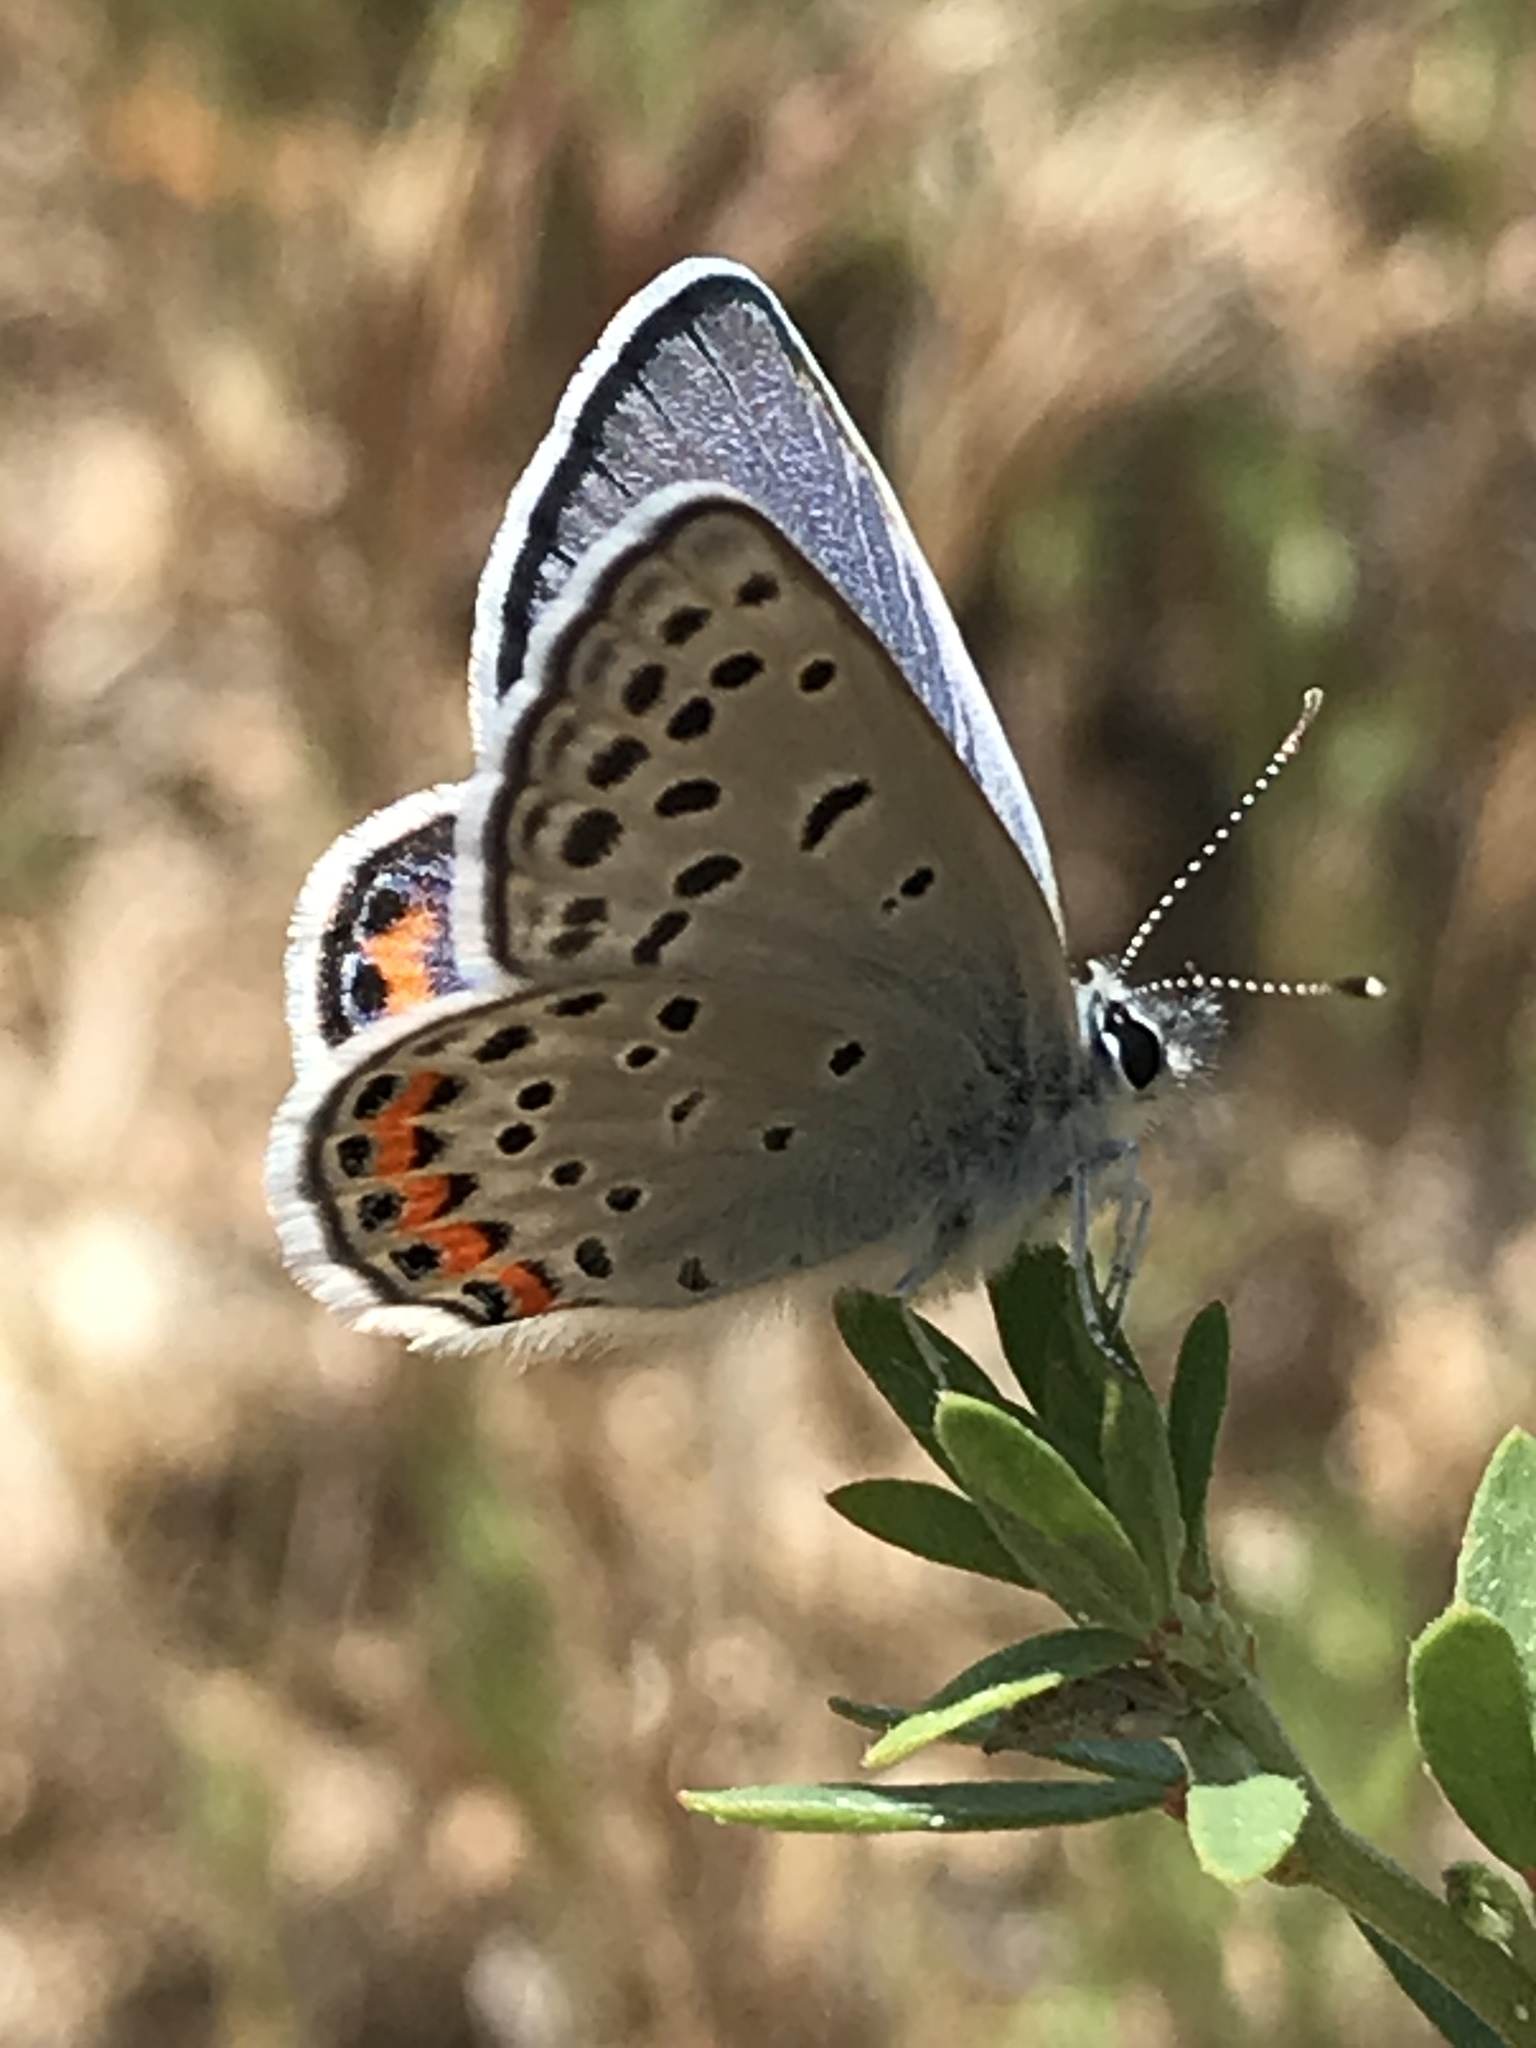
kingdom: Animalia
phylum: Arthropoda
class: Insecta
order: Lepidoptera
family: Lycaenidae
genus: Icaricia
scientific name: Icaricia acmon
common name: Acmon blue
